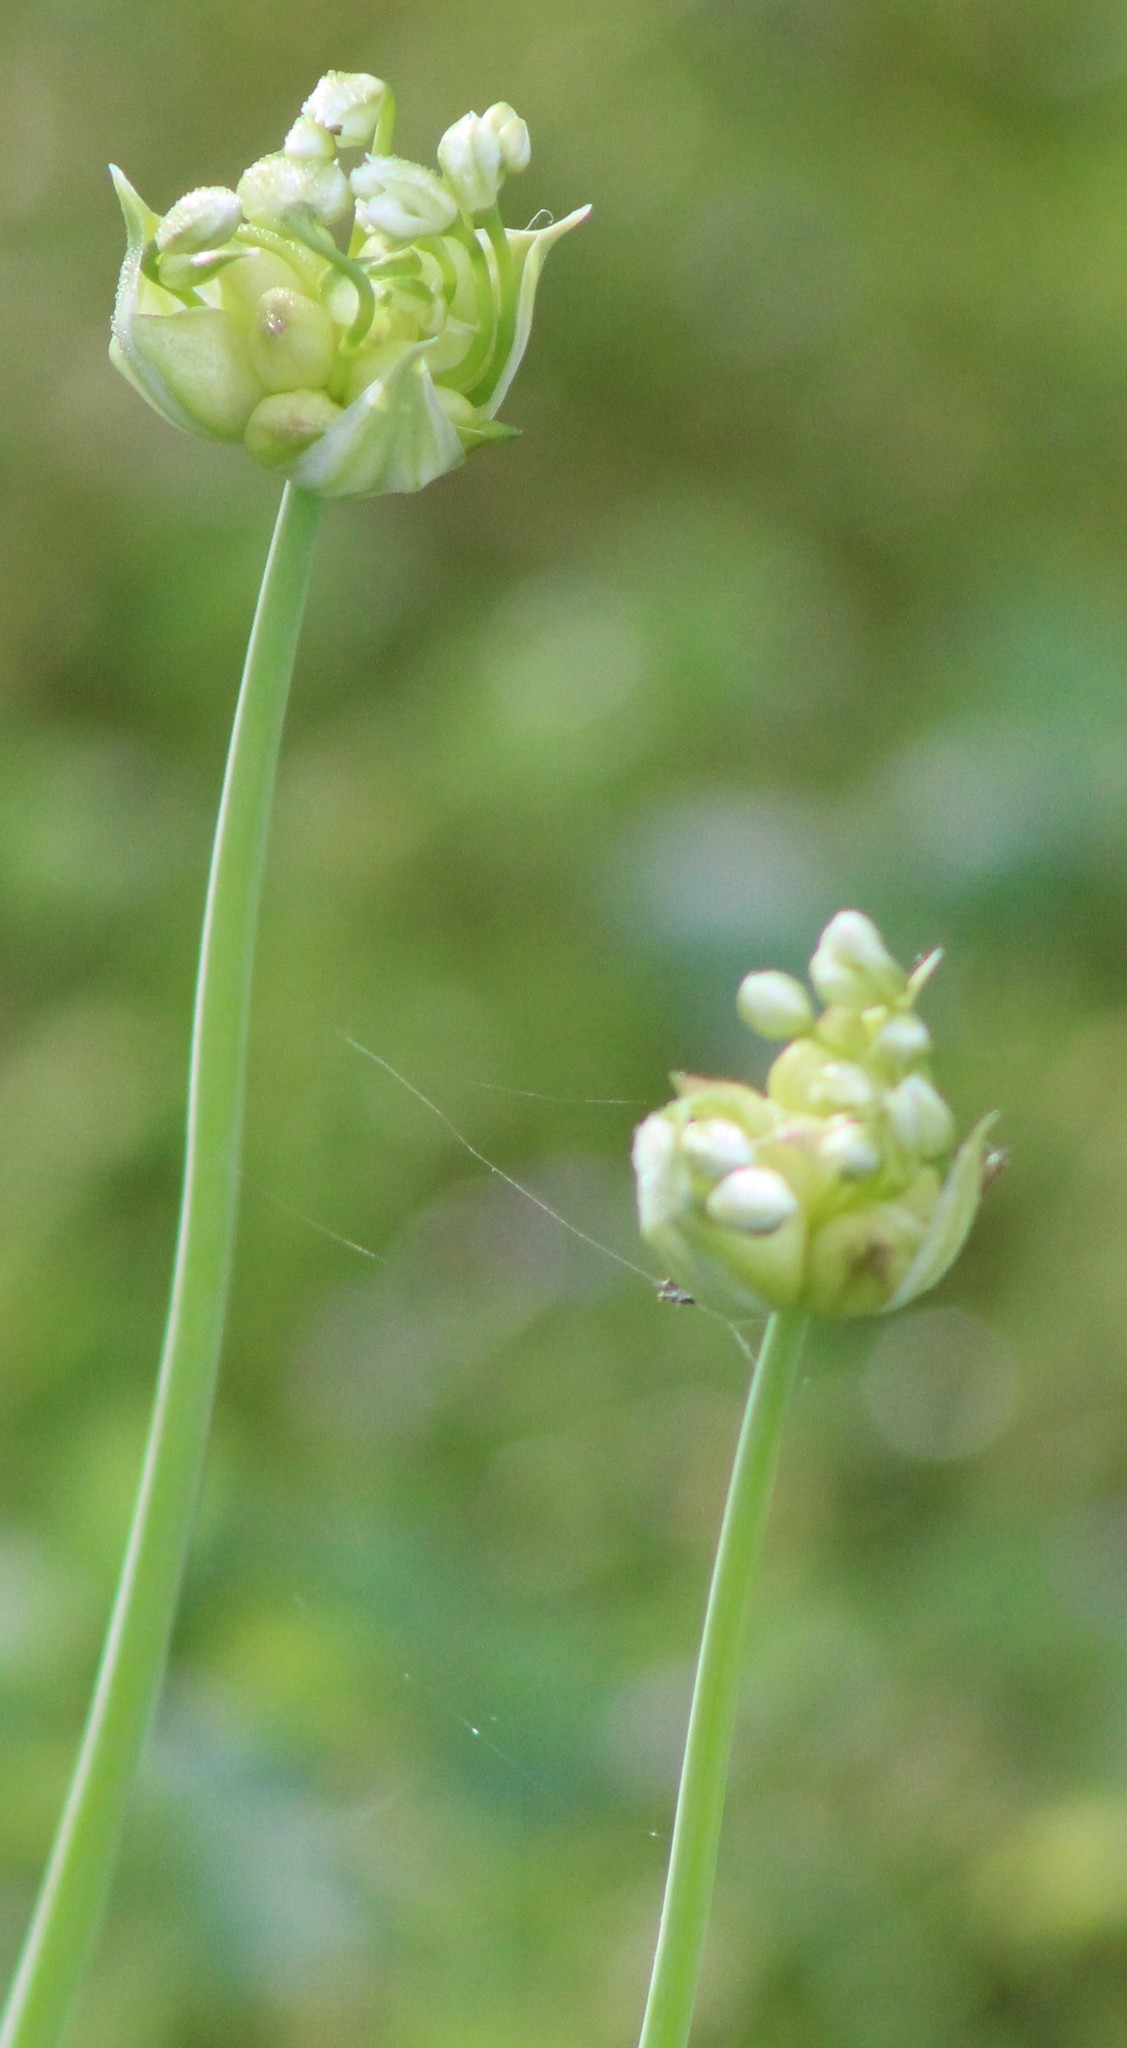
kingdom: Plantae
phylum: Tracheophyta
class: Liliopsida
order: Asparagales
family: Amaryllidaceae
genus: Allium
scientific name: Allium canadense
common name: Meadow garlic
